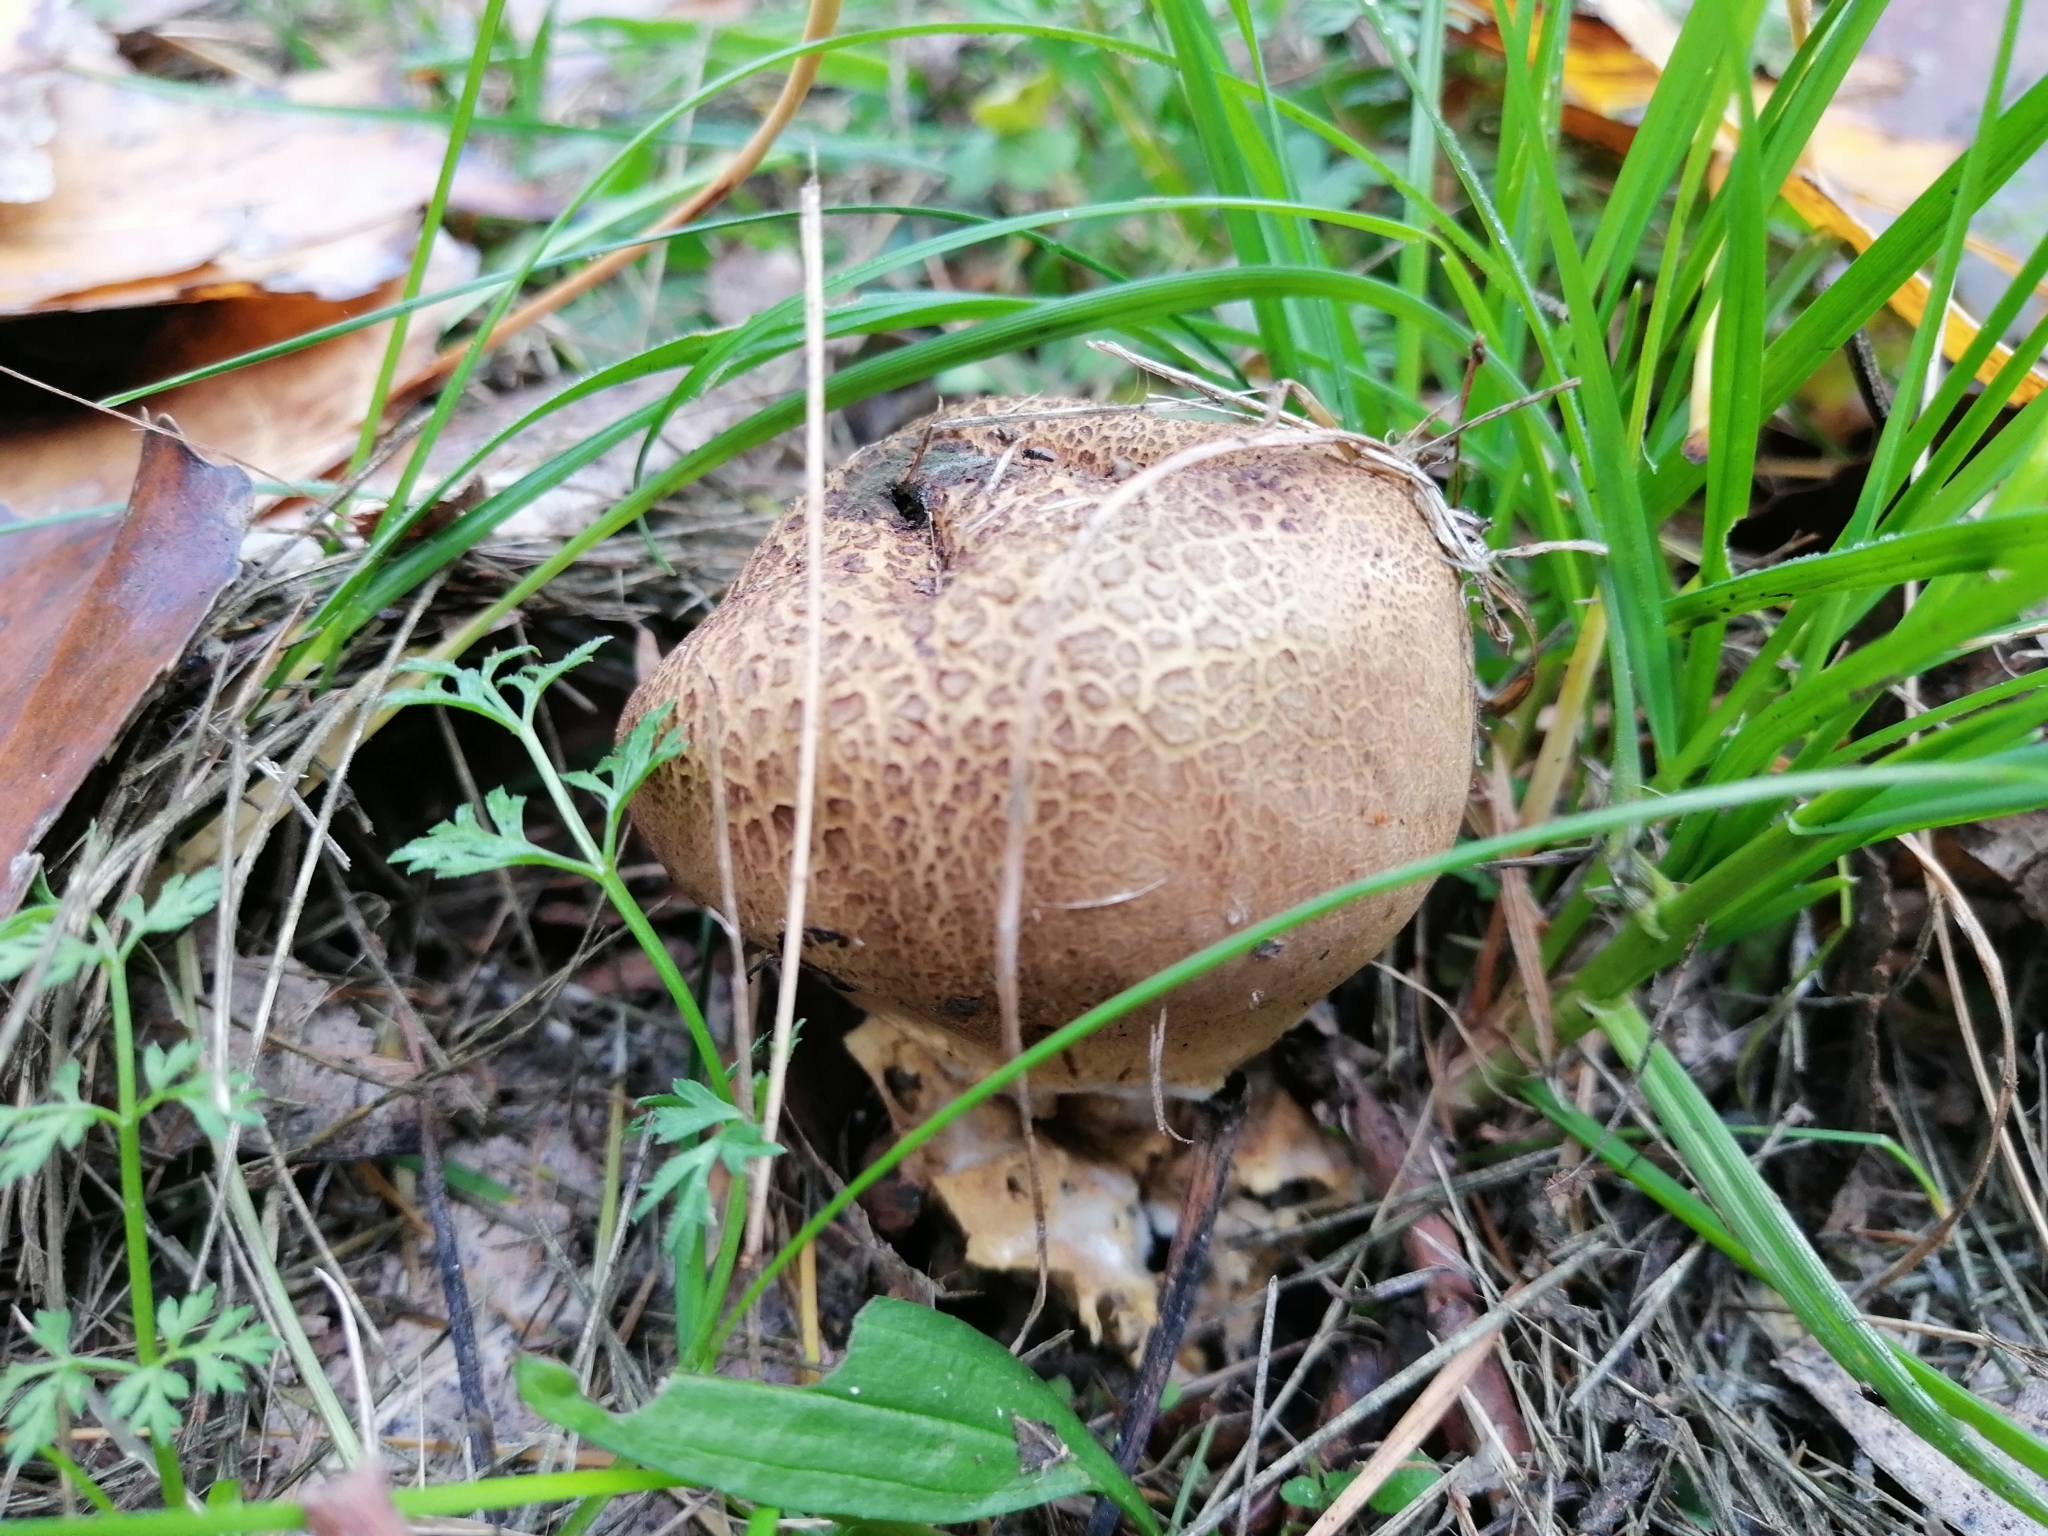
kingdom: Fungi
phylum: Basidiomycota
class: Agaricomycetes
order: Boletales
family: Sclerodermataceae
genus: Scleroderma
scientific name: Scleroderma verrucosum
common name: Scaly earthball
